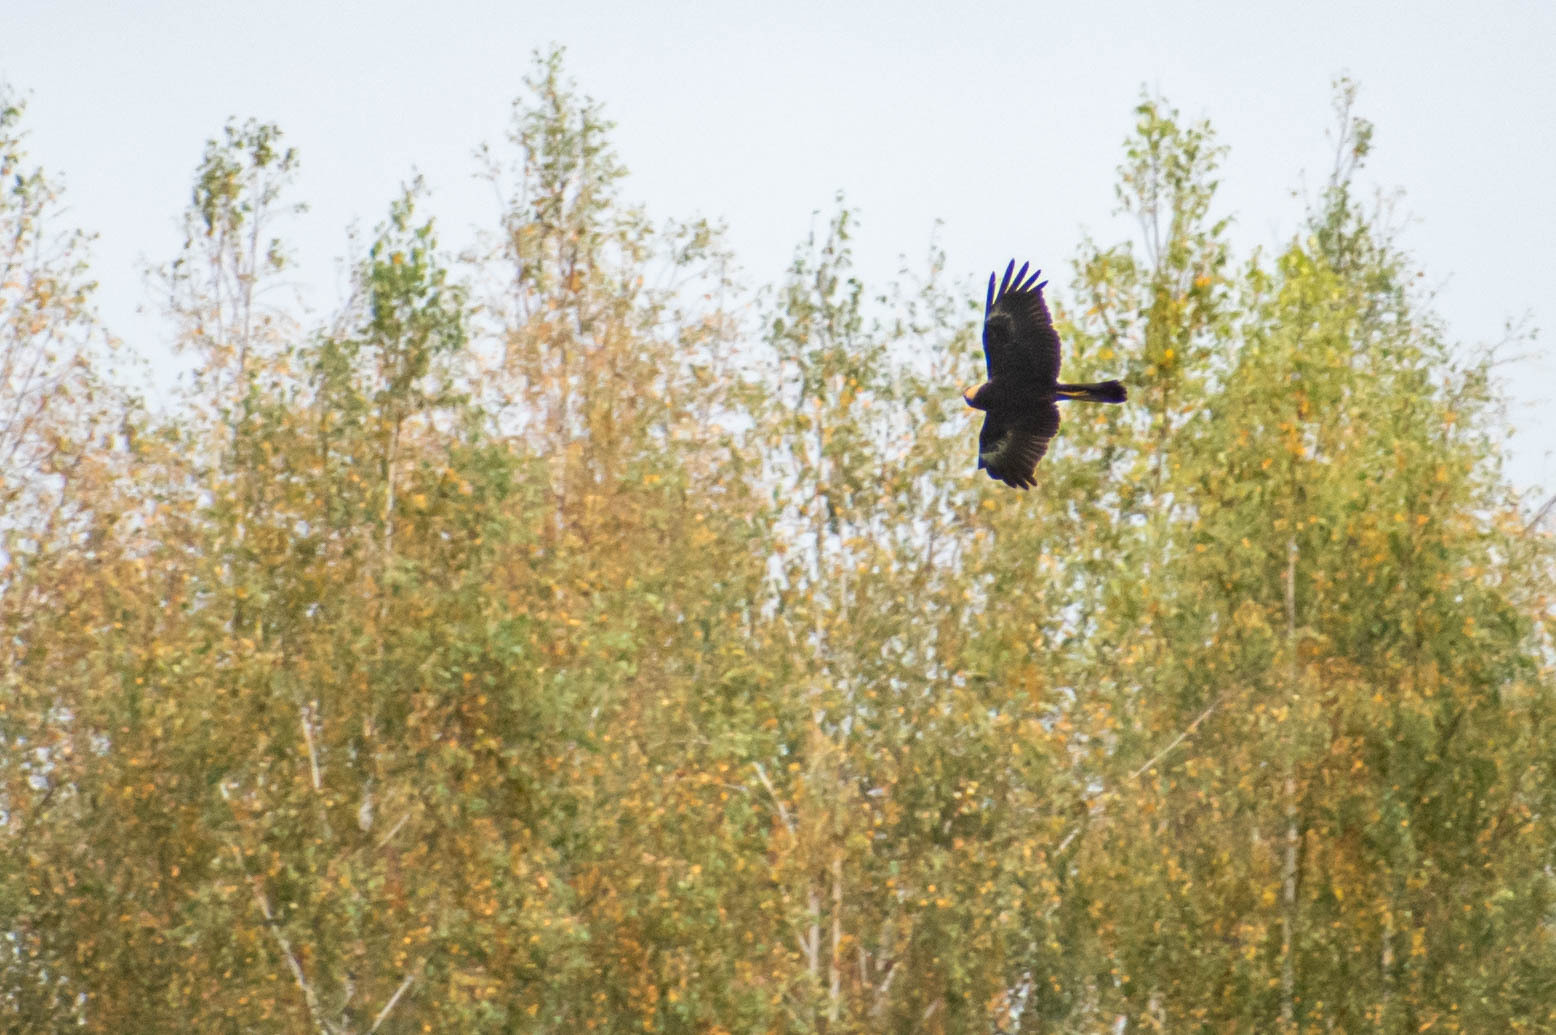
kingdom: Animalia
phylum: Chordata
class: Aves
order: Accipitriformes
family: Accipitridae
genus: Circus
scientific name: Circus aeruginosus
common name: Western marsh harrier
